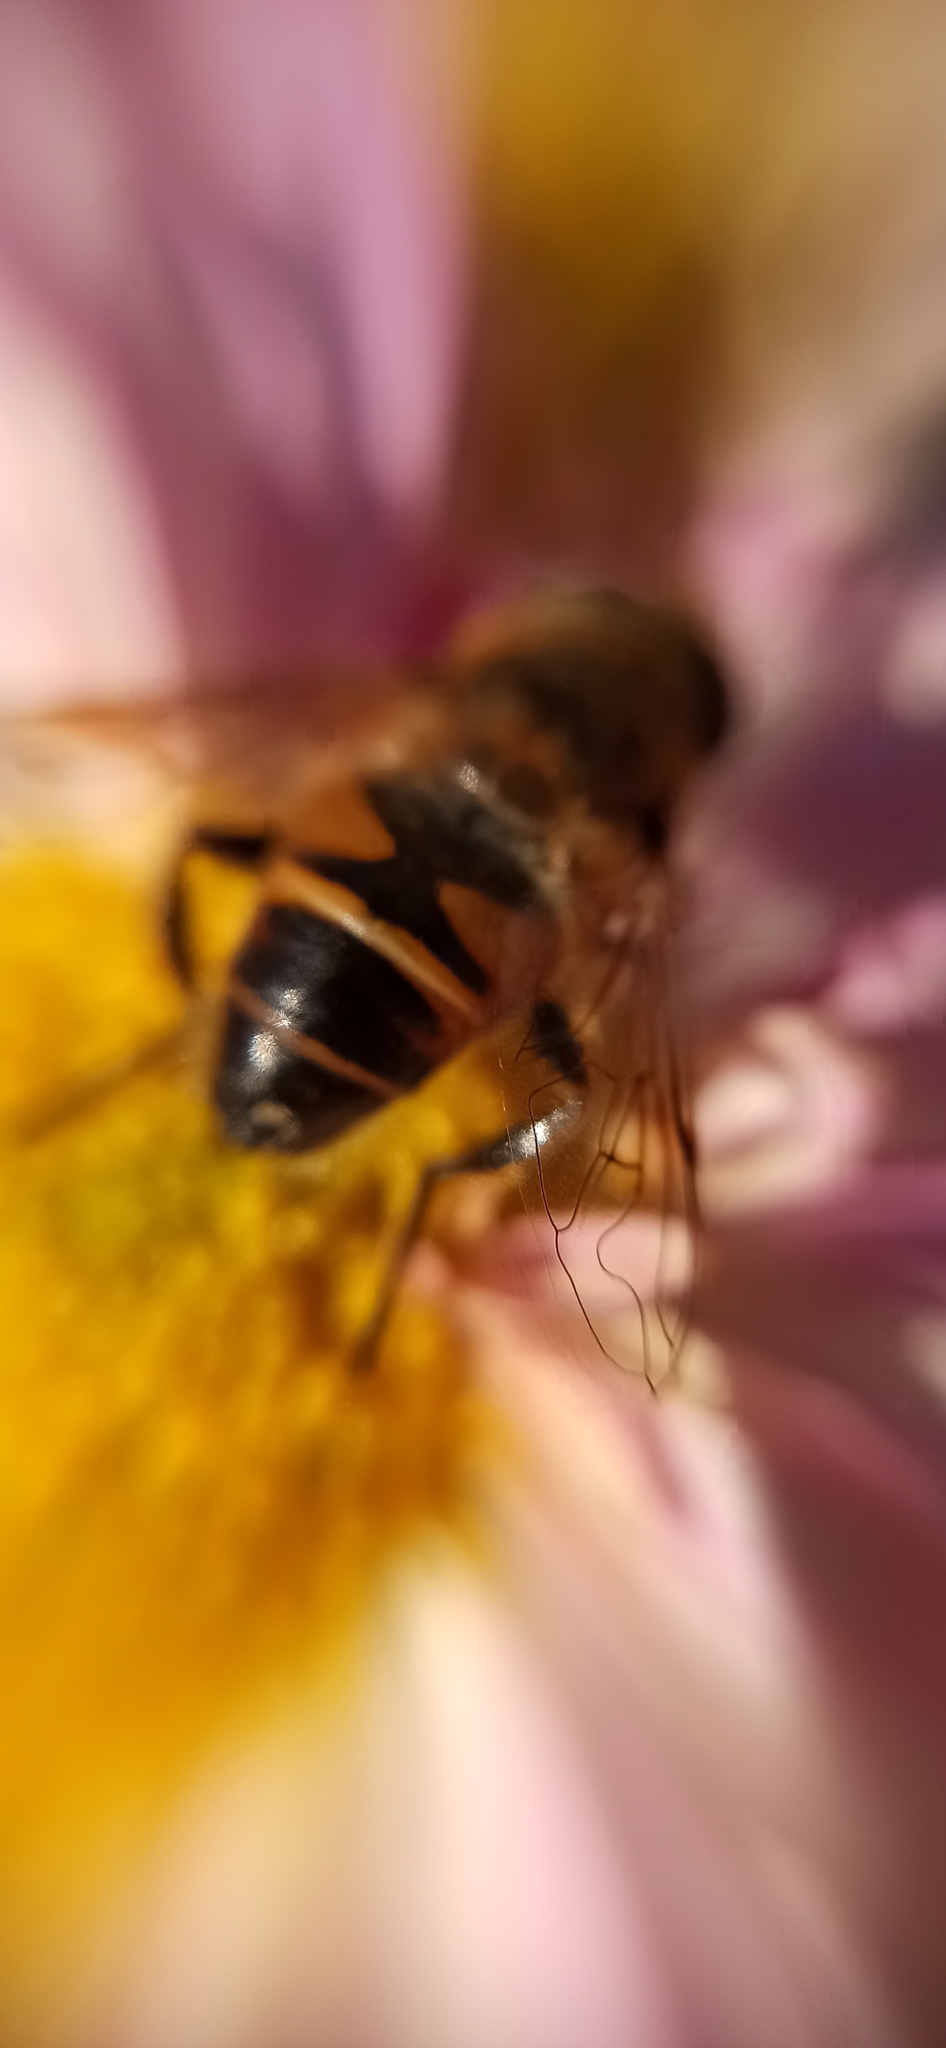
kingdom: Animalia
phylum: Arthropoda
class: Insecta
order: Diptera
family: Syrphidae
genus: Eristalis
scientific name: Eristalis tenax
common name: Drone fly
